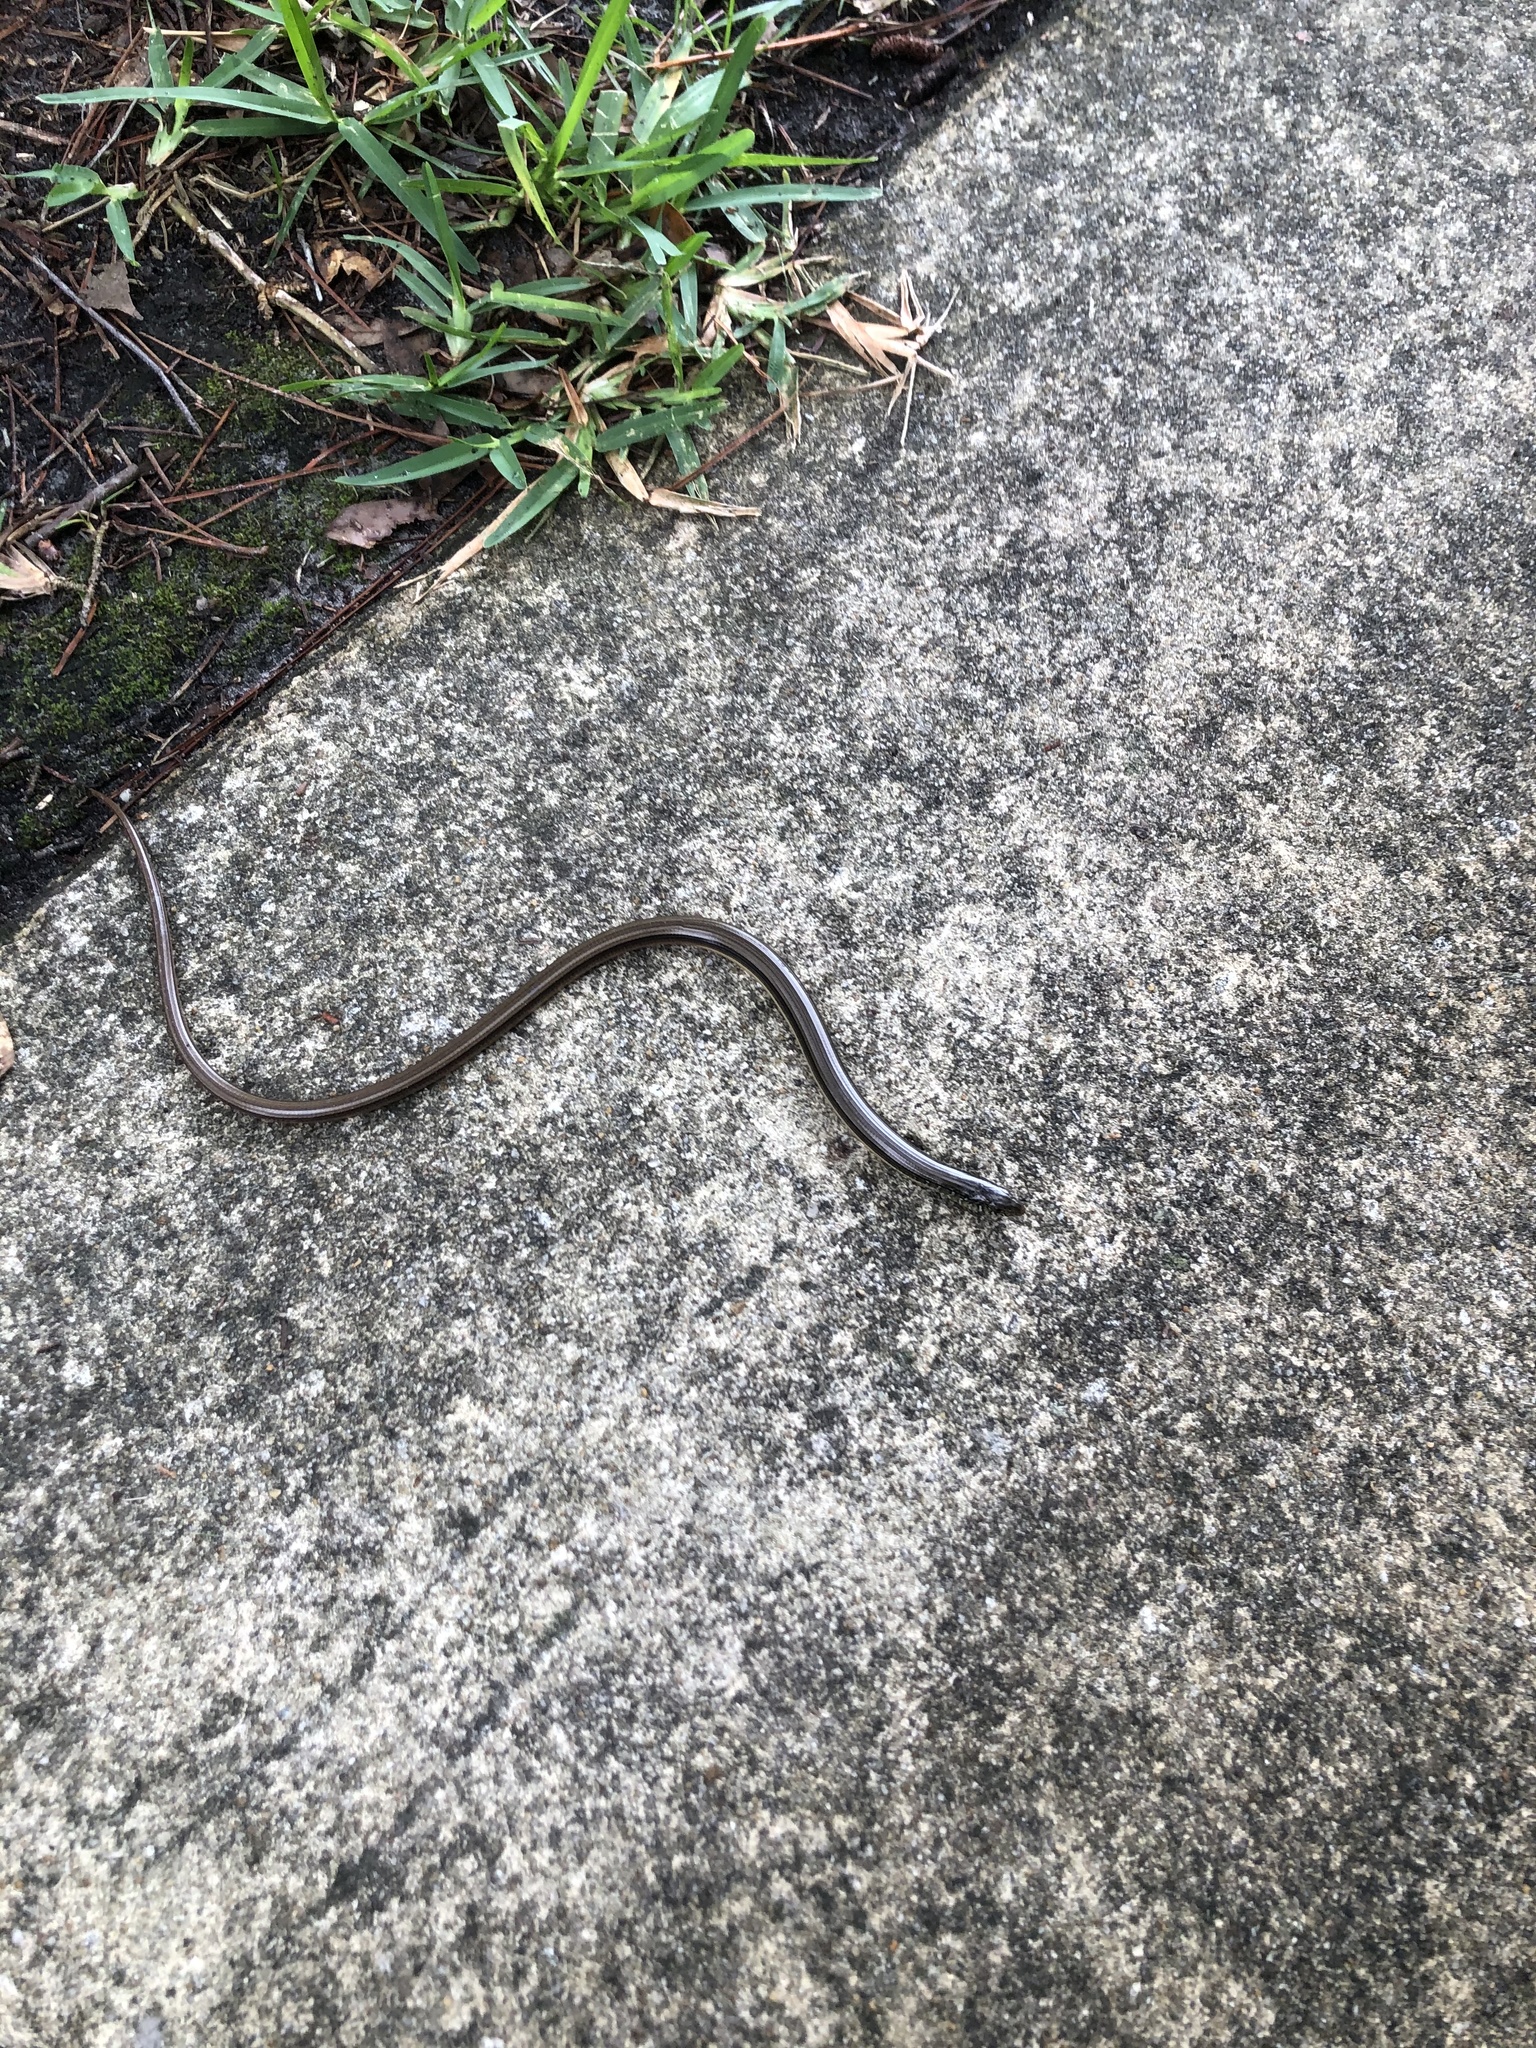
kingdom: Animalia
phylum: Chordata
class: Squamata
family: Anguidae
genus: Ophisaurus
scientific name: Ophisaurus ventralis
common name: Eastern glass lizard
